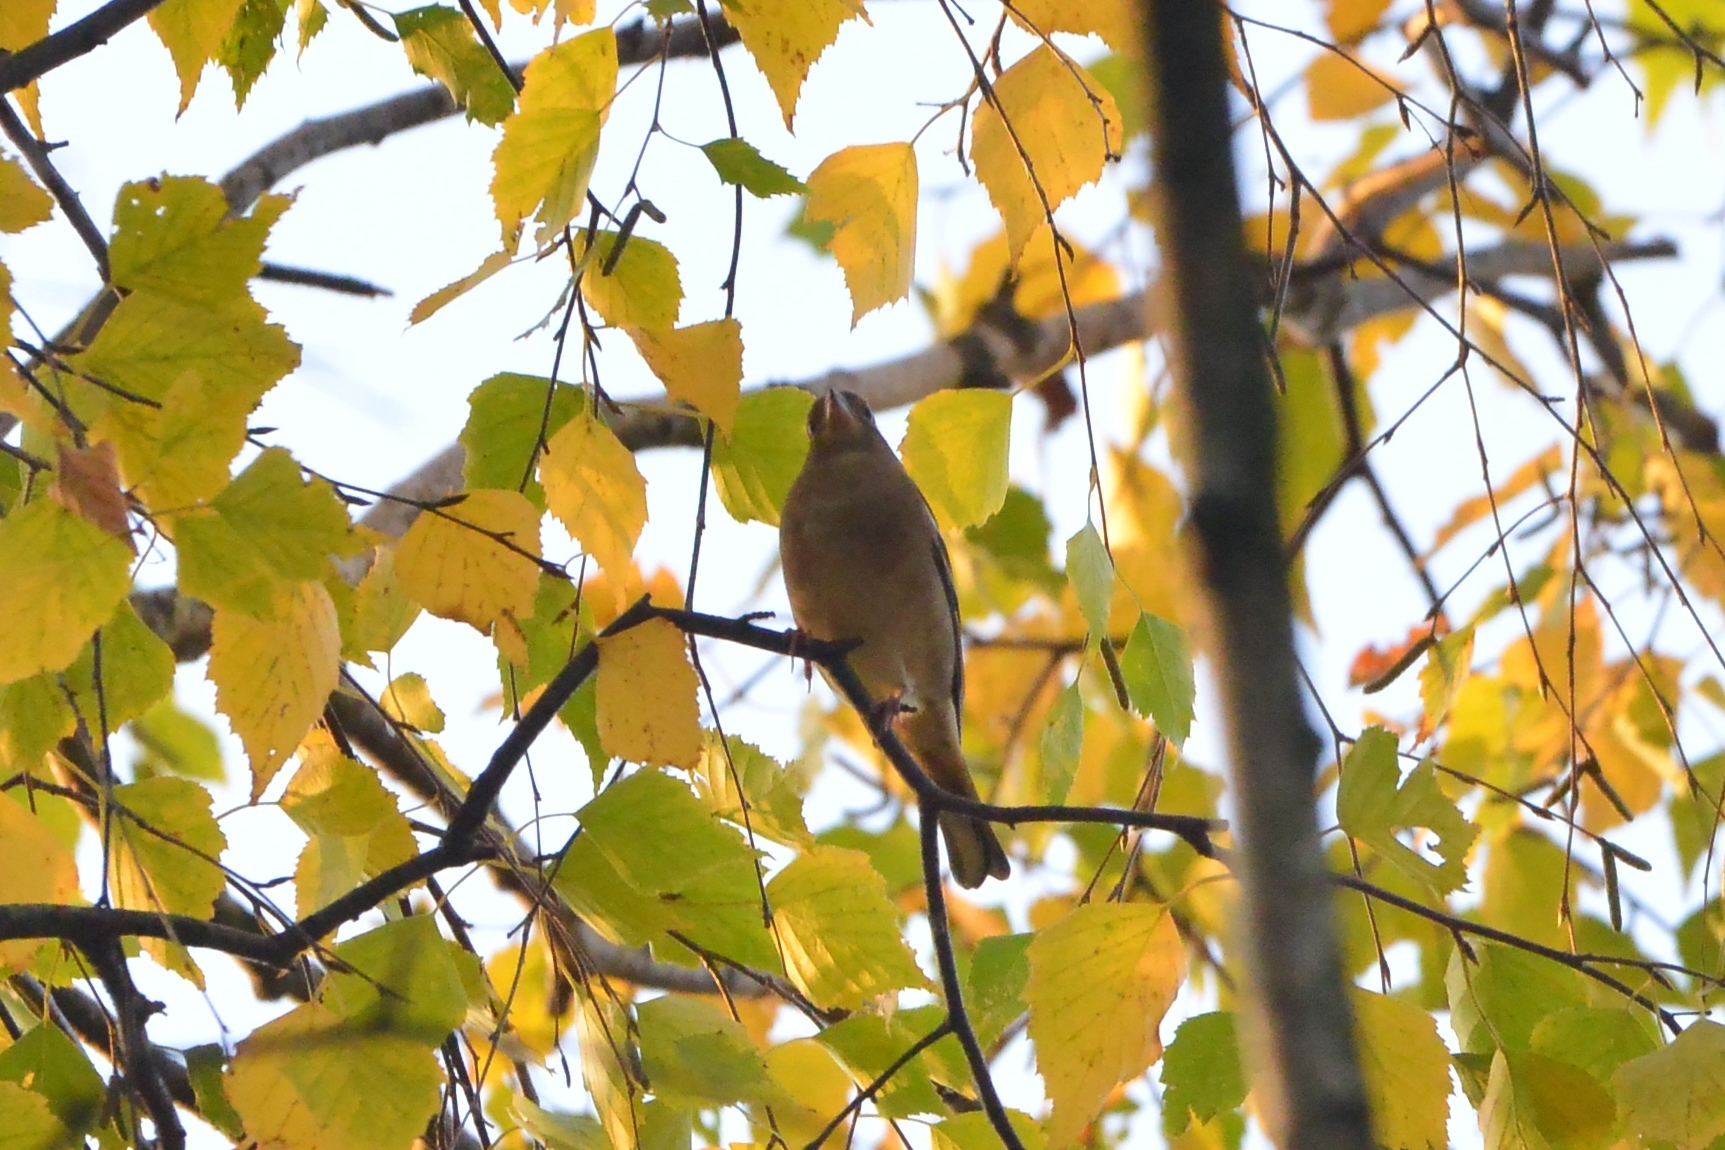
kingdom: Animalia
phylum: Chordata
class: Aves
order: Passeriformes
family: Fringillidae
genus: Fringilla
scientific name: Fringilla coelebs
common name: Common chaffinch
